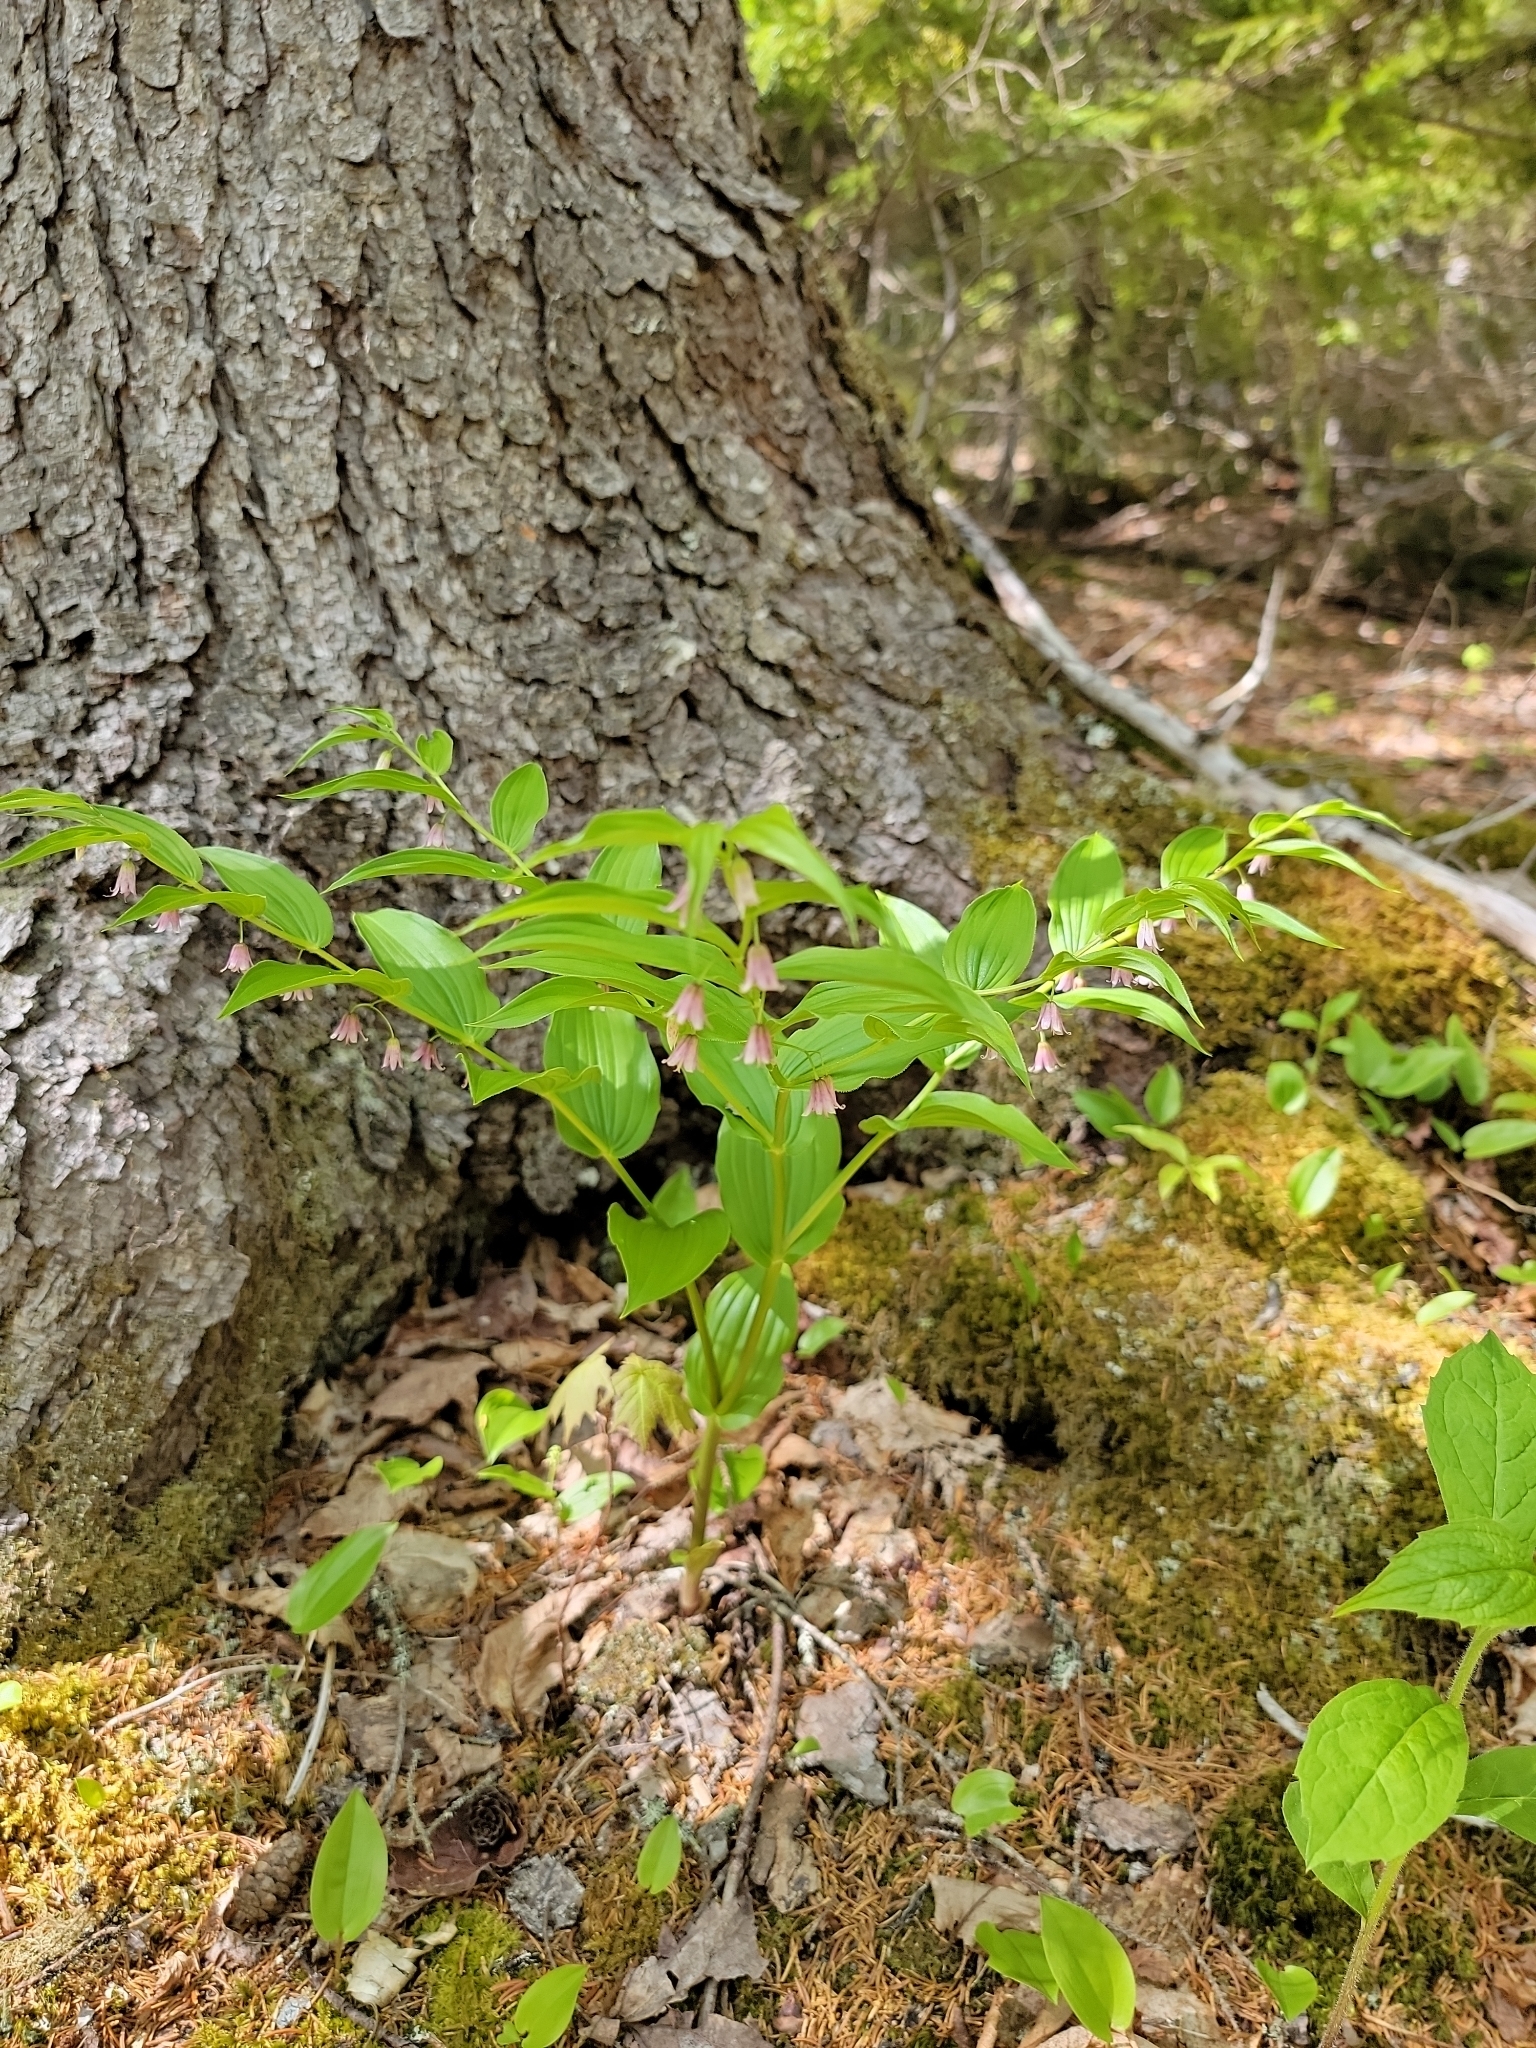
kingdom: Plantae
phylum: Tracheophyta
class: Liliopsida
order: Liliales
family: Liliaceae
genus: Streptopus
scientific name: Streptopus lanceolatus
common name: Rose mandarin
